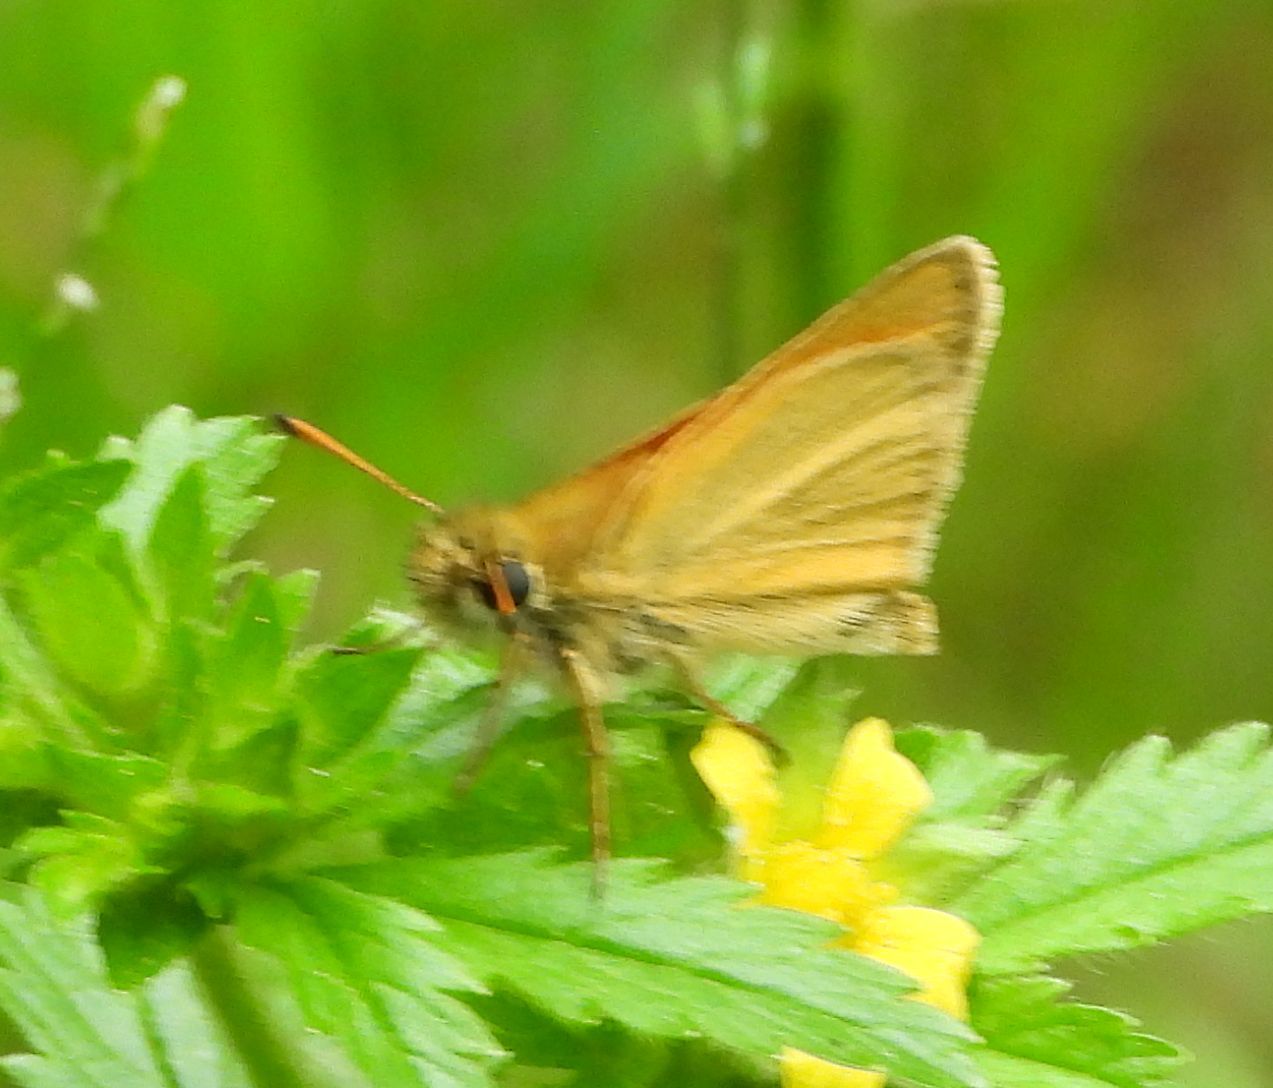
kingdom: Animalia
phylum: Arthropoda
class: Insecta
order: Lepidoptera
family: Hesperiidae
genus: Thymelicus
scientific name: Thymelicus lineola
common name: Essex skipper
